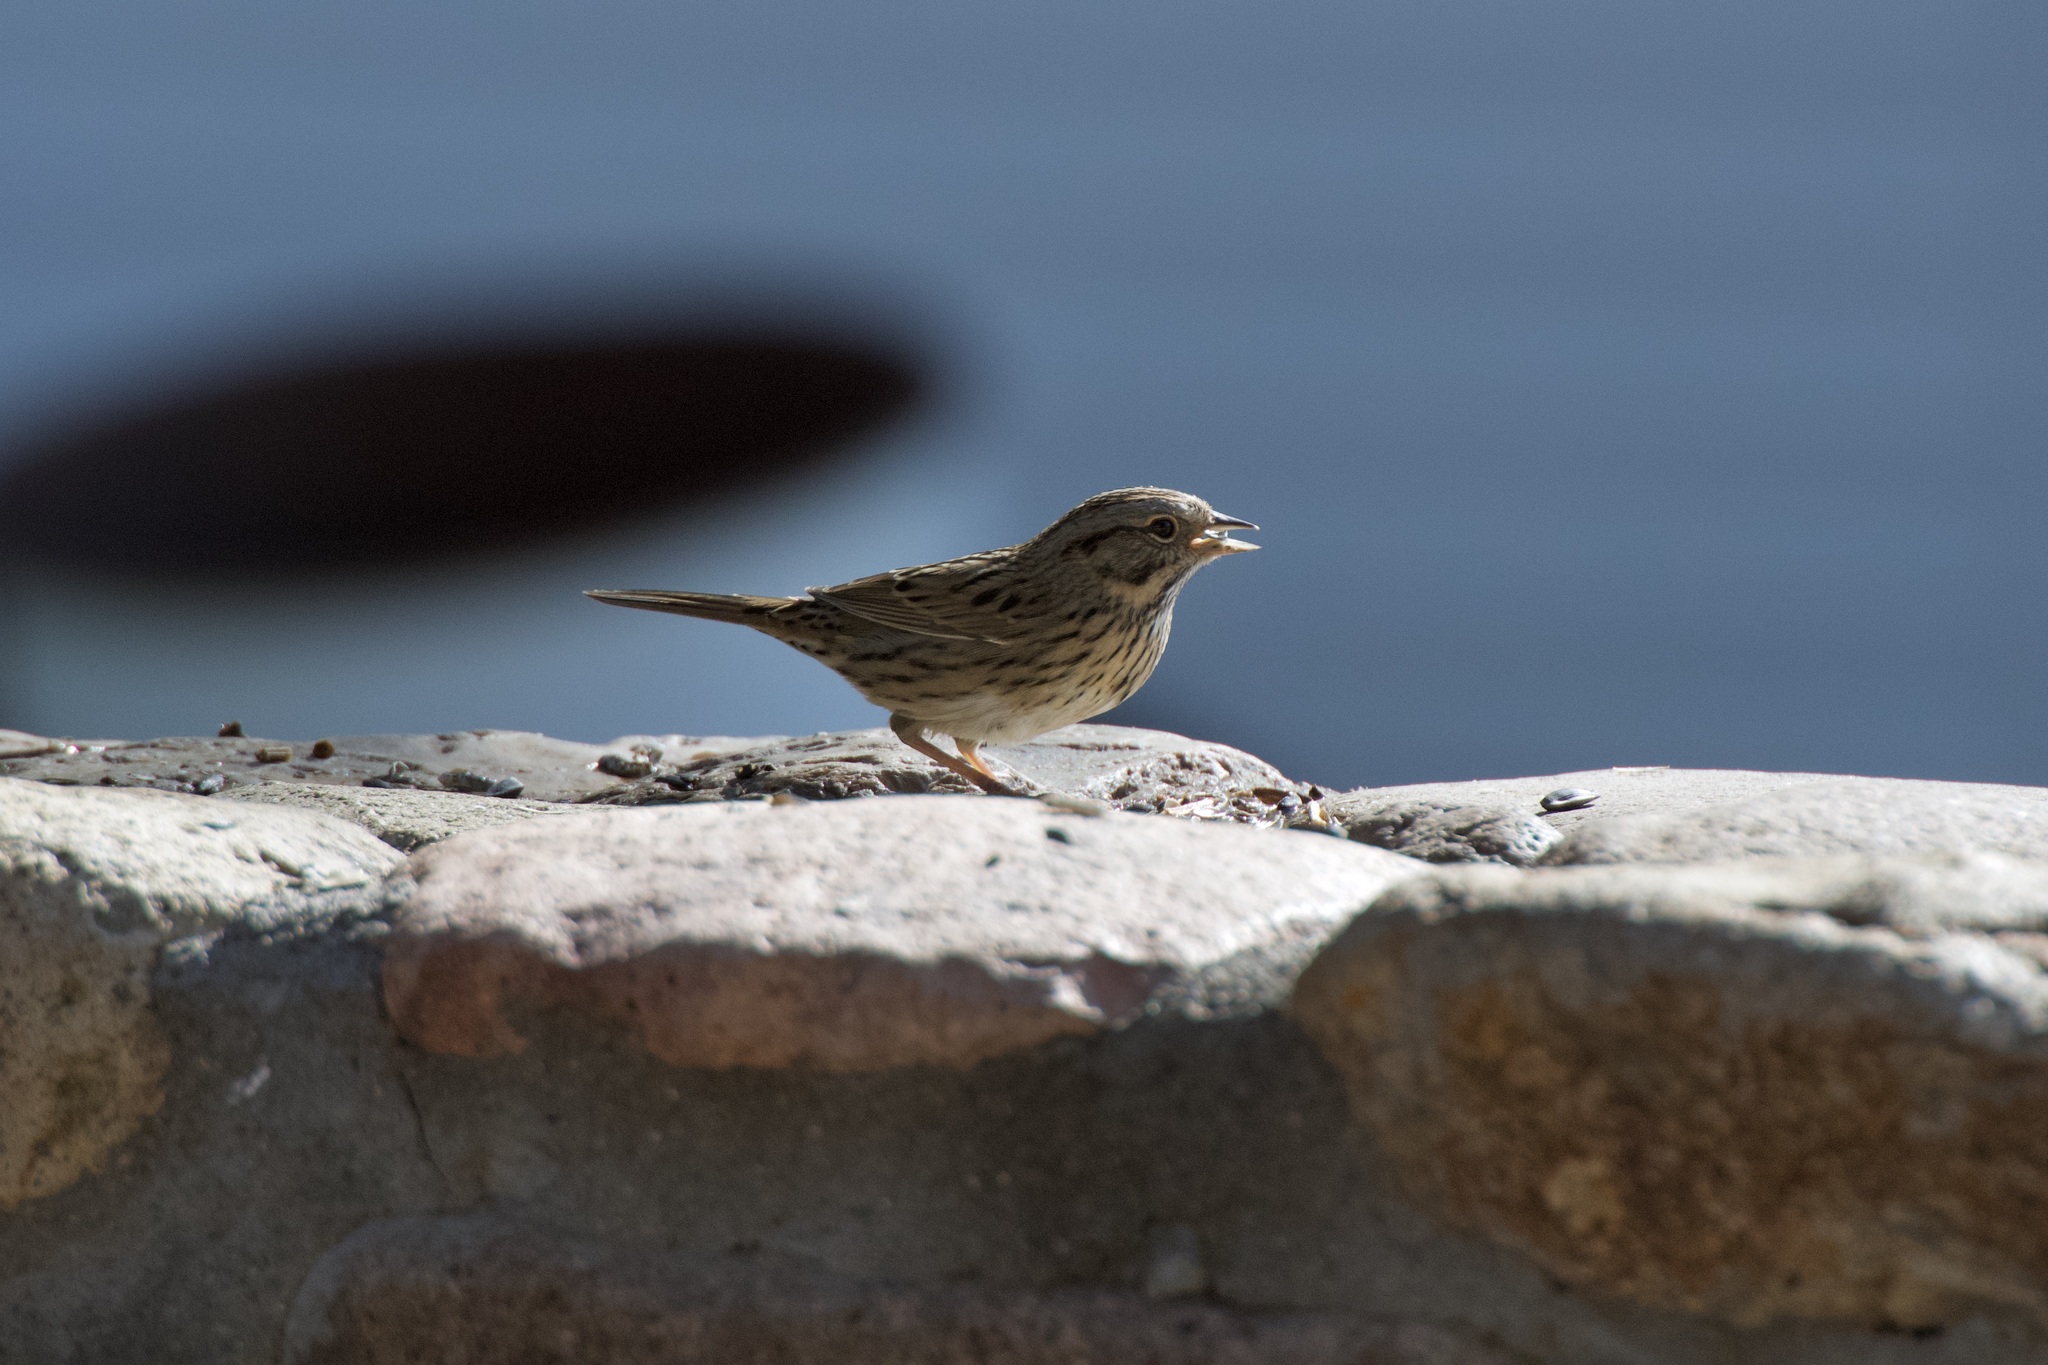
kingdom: Animalia
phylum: Chordata
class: Aves
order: Passeriformes
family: Passerellidae
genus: Melospiza
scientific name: Melospiza lincolnii
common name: Lincoln's sparrow
